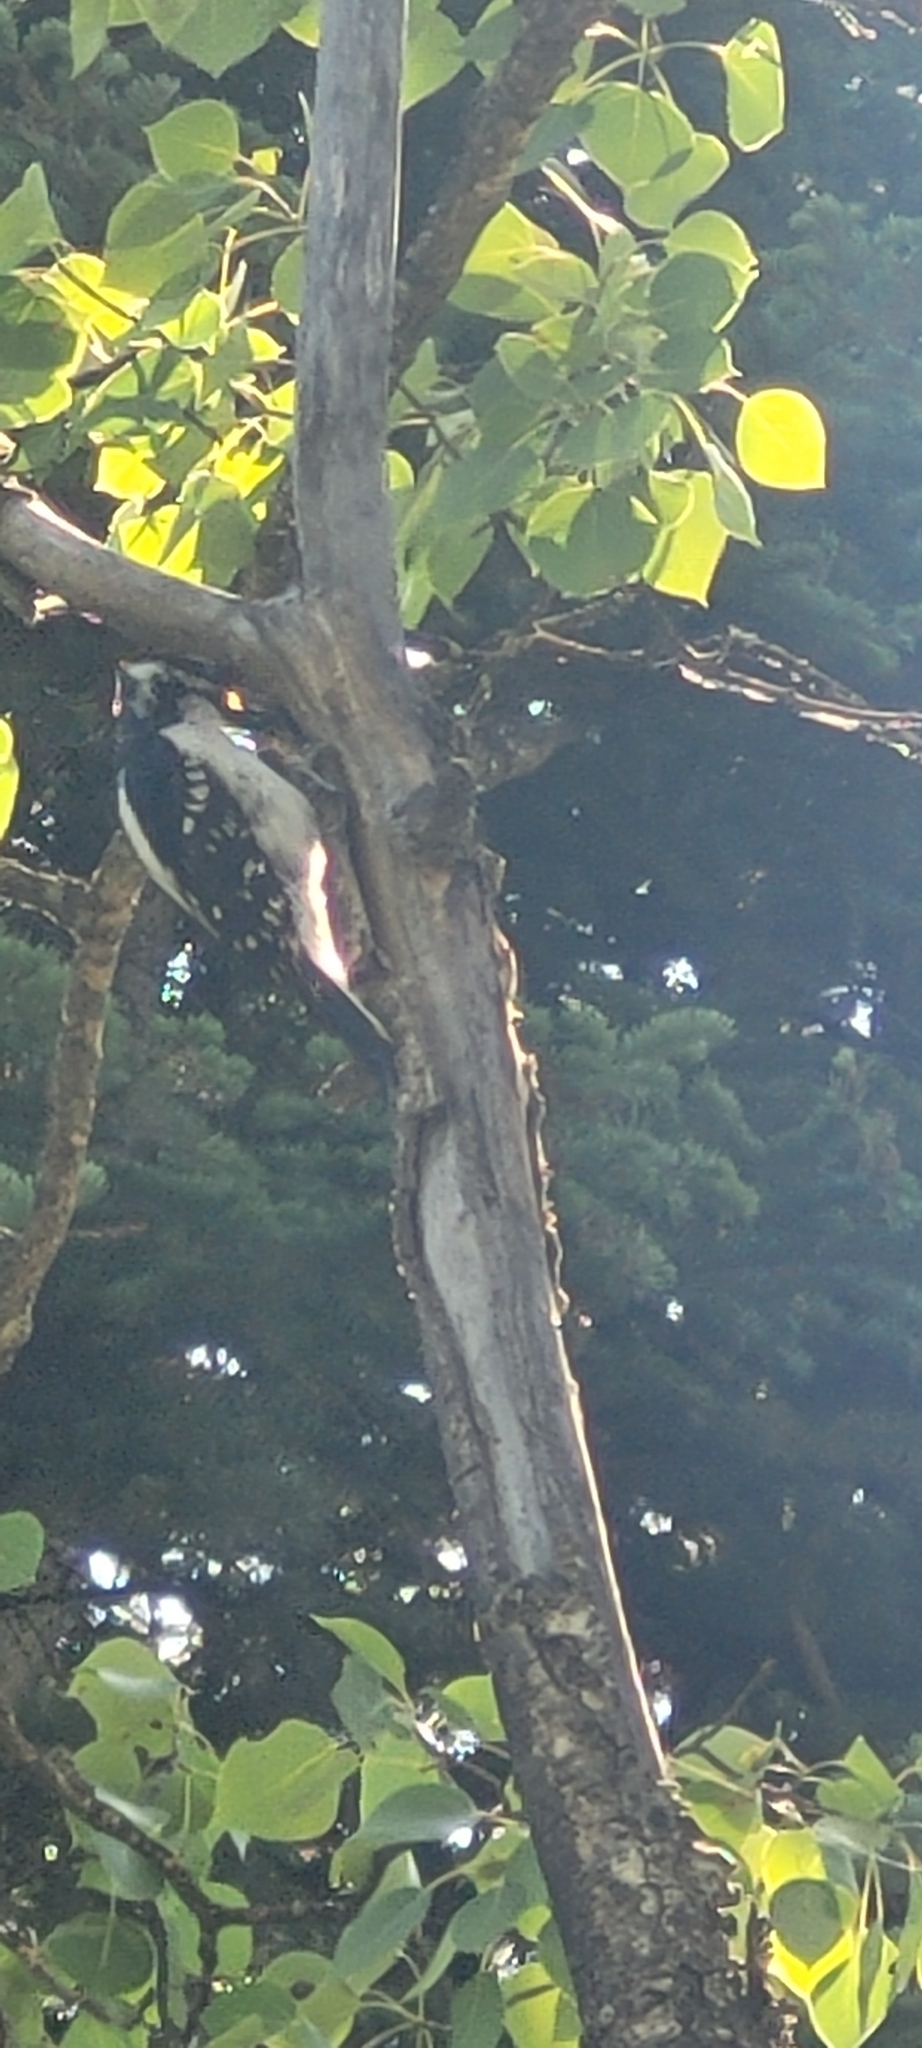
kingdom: Animalia
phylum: Chordata
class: Aves
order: Piciformes
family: Picidae
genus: Leuconotopicus
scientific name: Leuconotopicus villosus
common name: Hairy woodpecker
